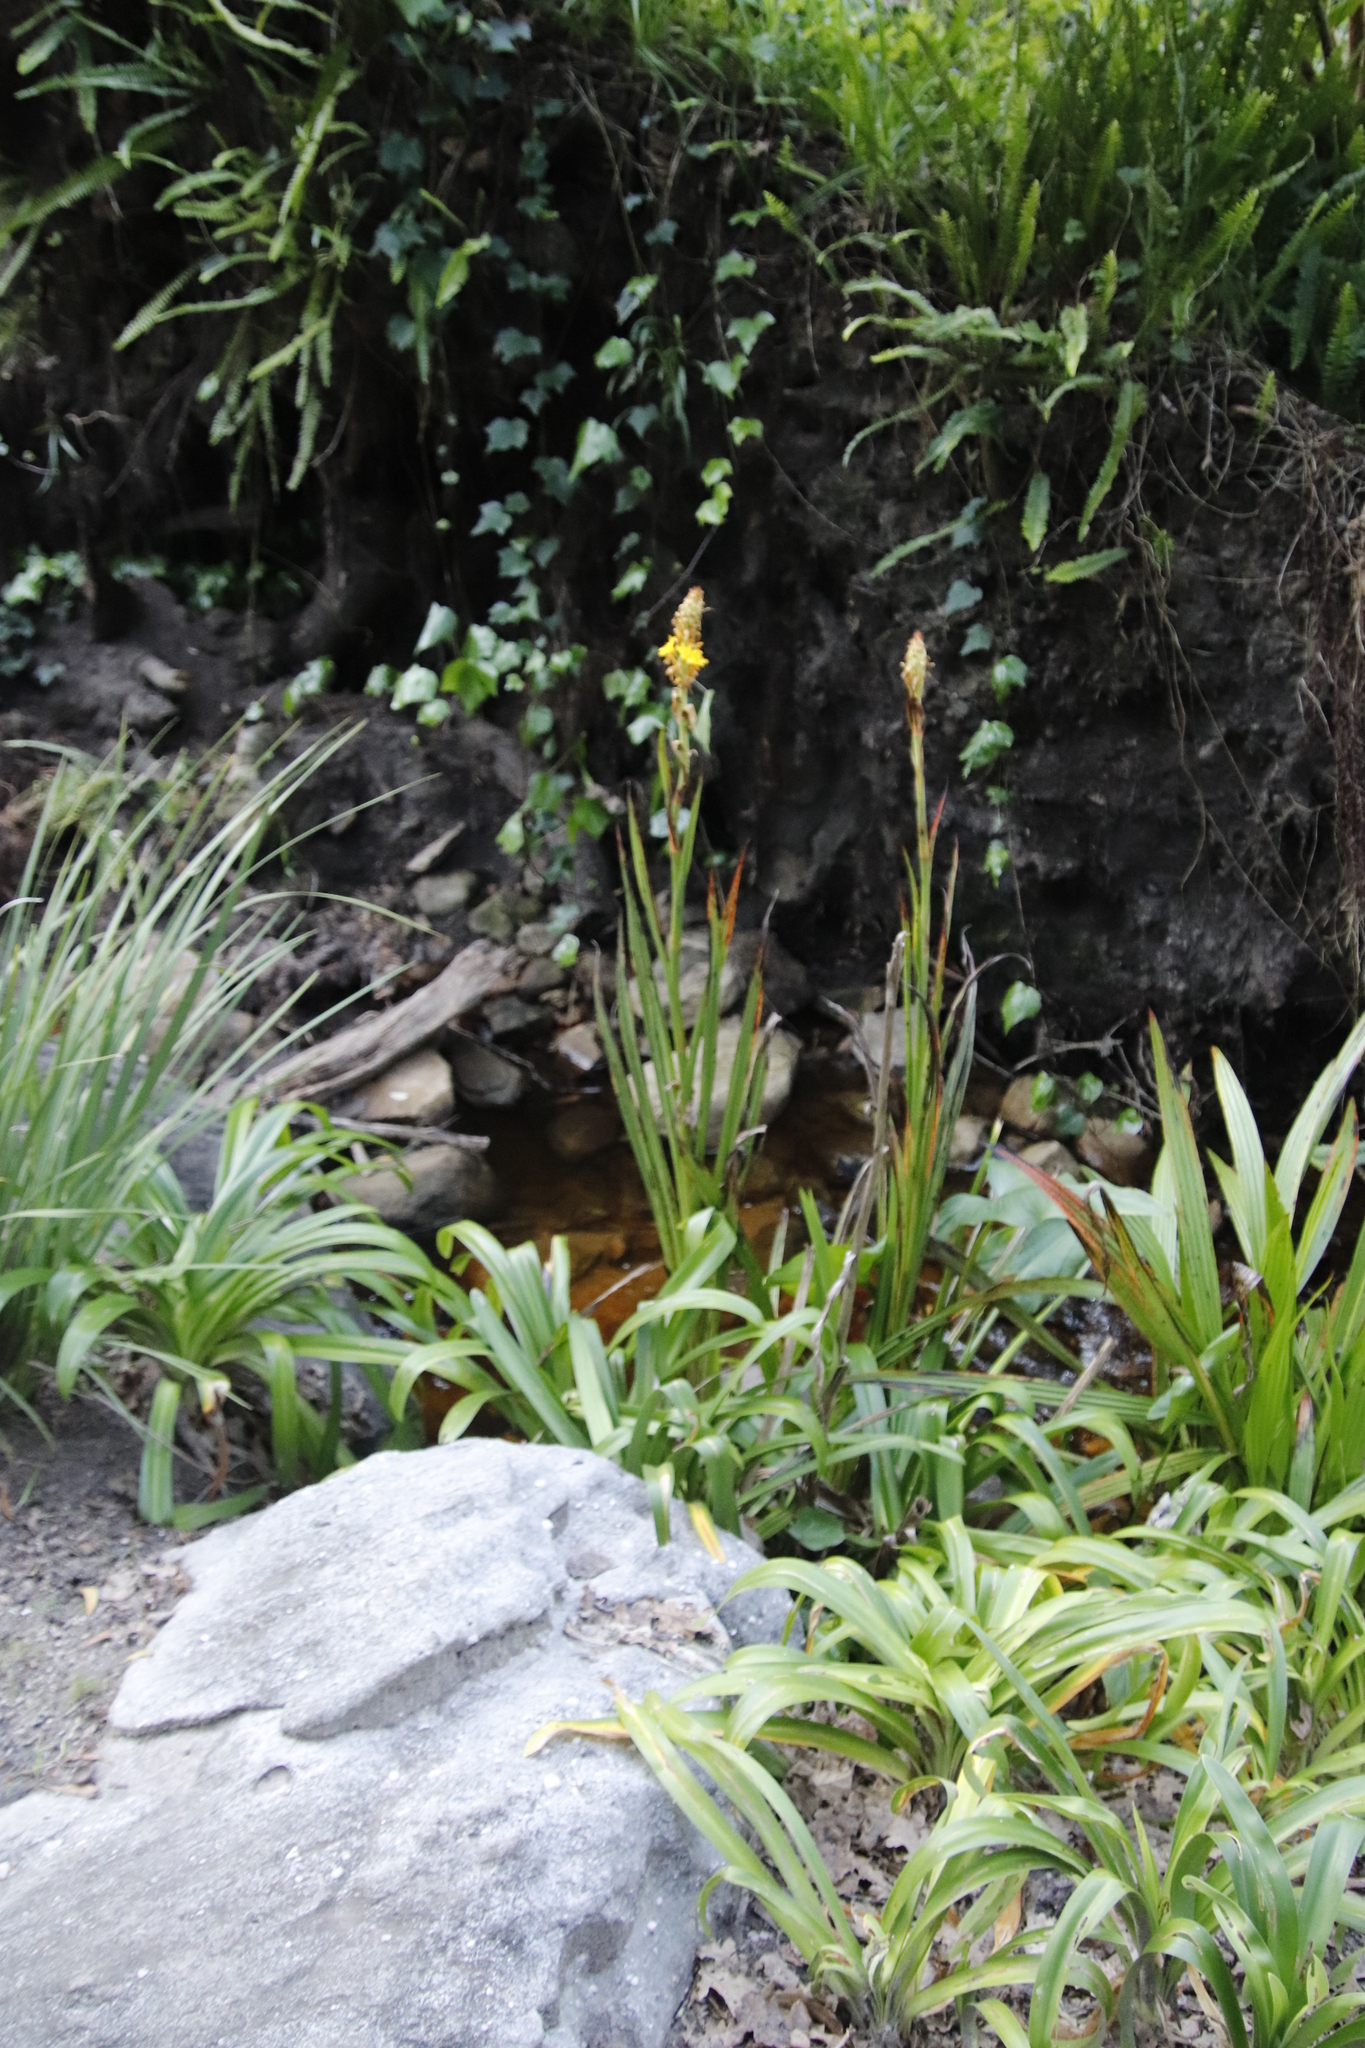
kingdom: Plantae
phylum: Tracheophyta
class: Liliopsida
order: Commelinales
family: Haemodoraceae
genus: Wachendorfia
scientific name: Wachendorfia thyrsiflora
